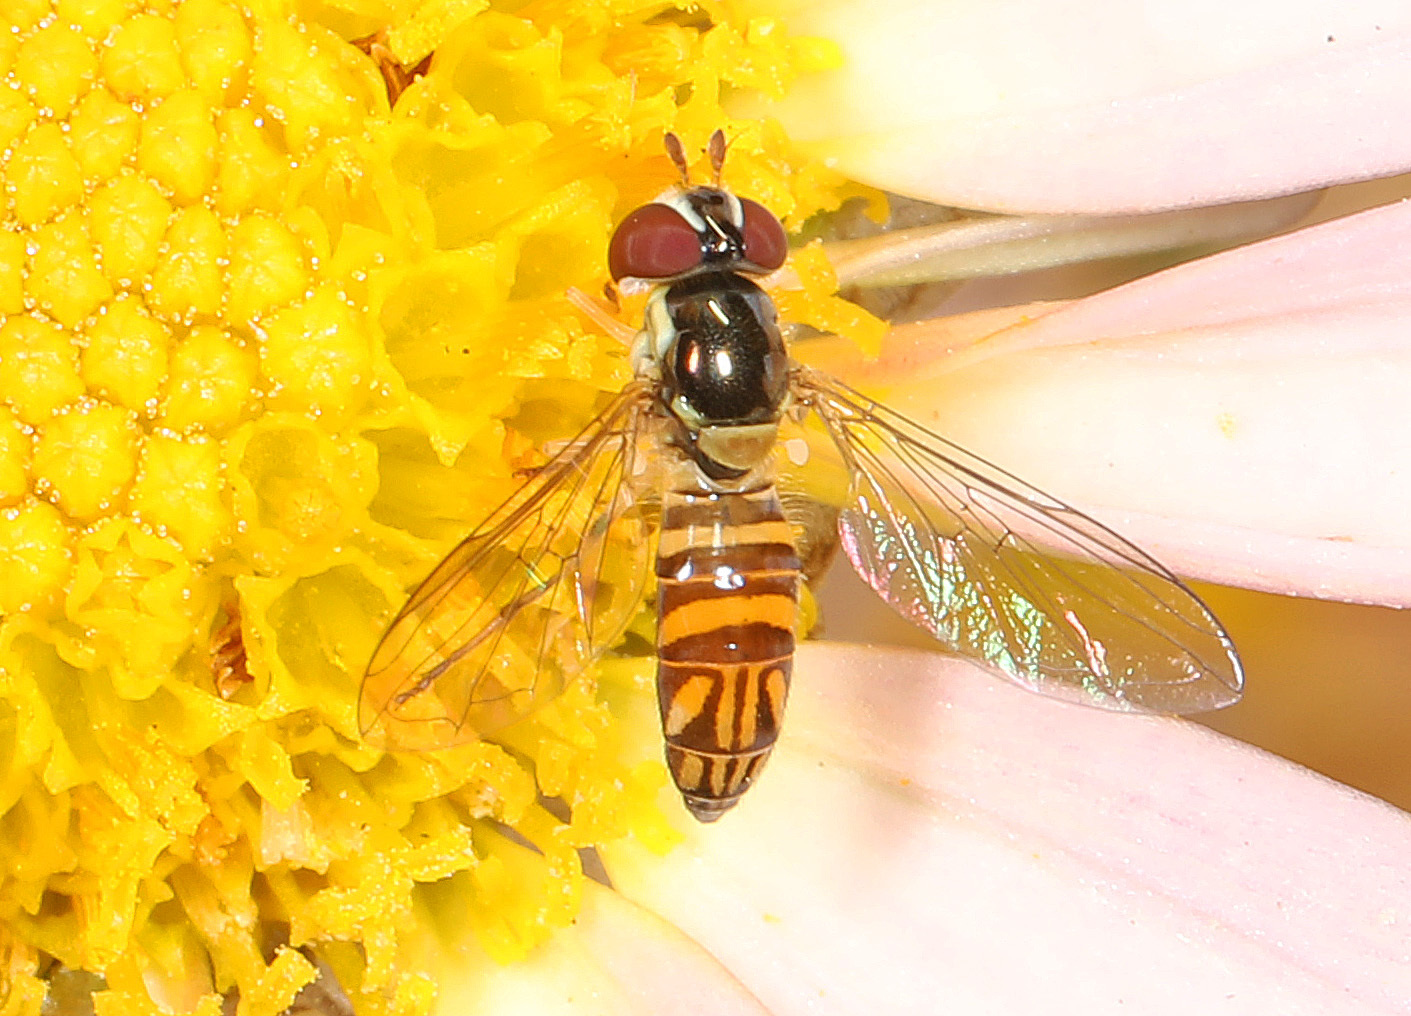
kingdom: Animalia
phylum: Arthropoda
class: Insecta
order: Diptera
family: Syrphidae
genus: Allograpta
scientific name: Allograpta obliqua
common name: Common oblique syrphid
